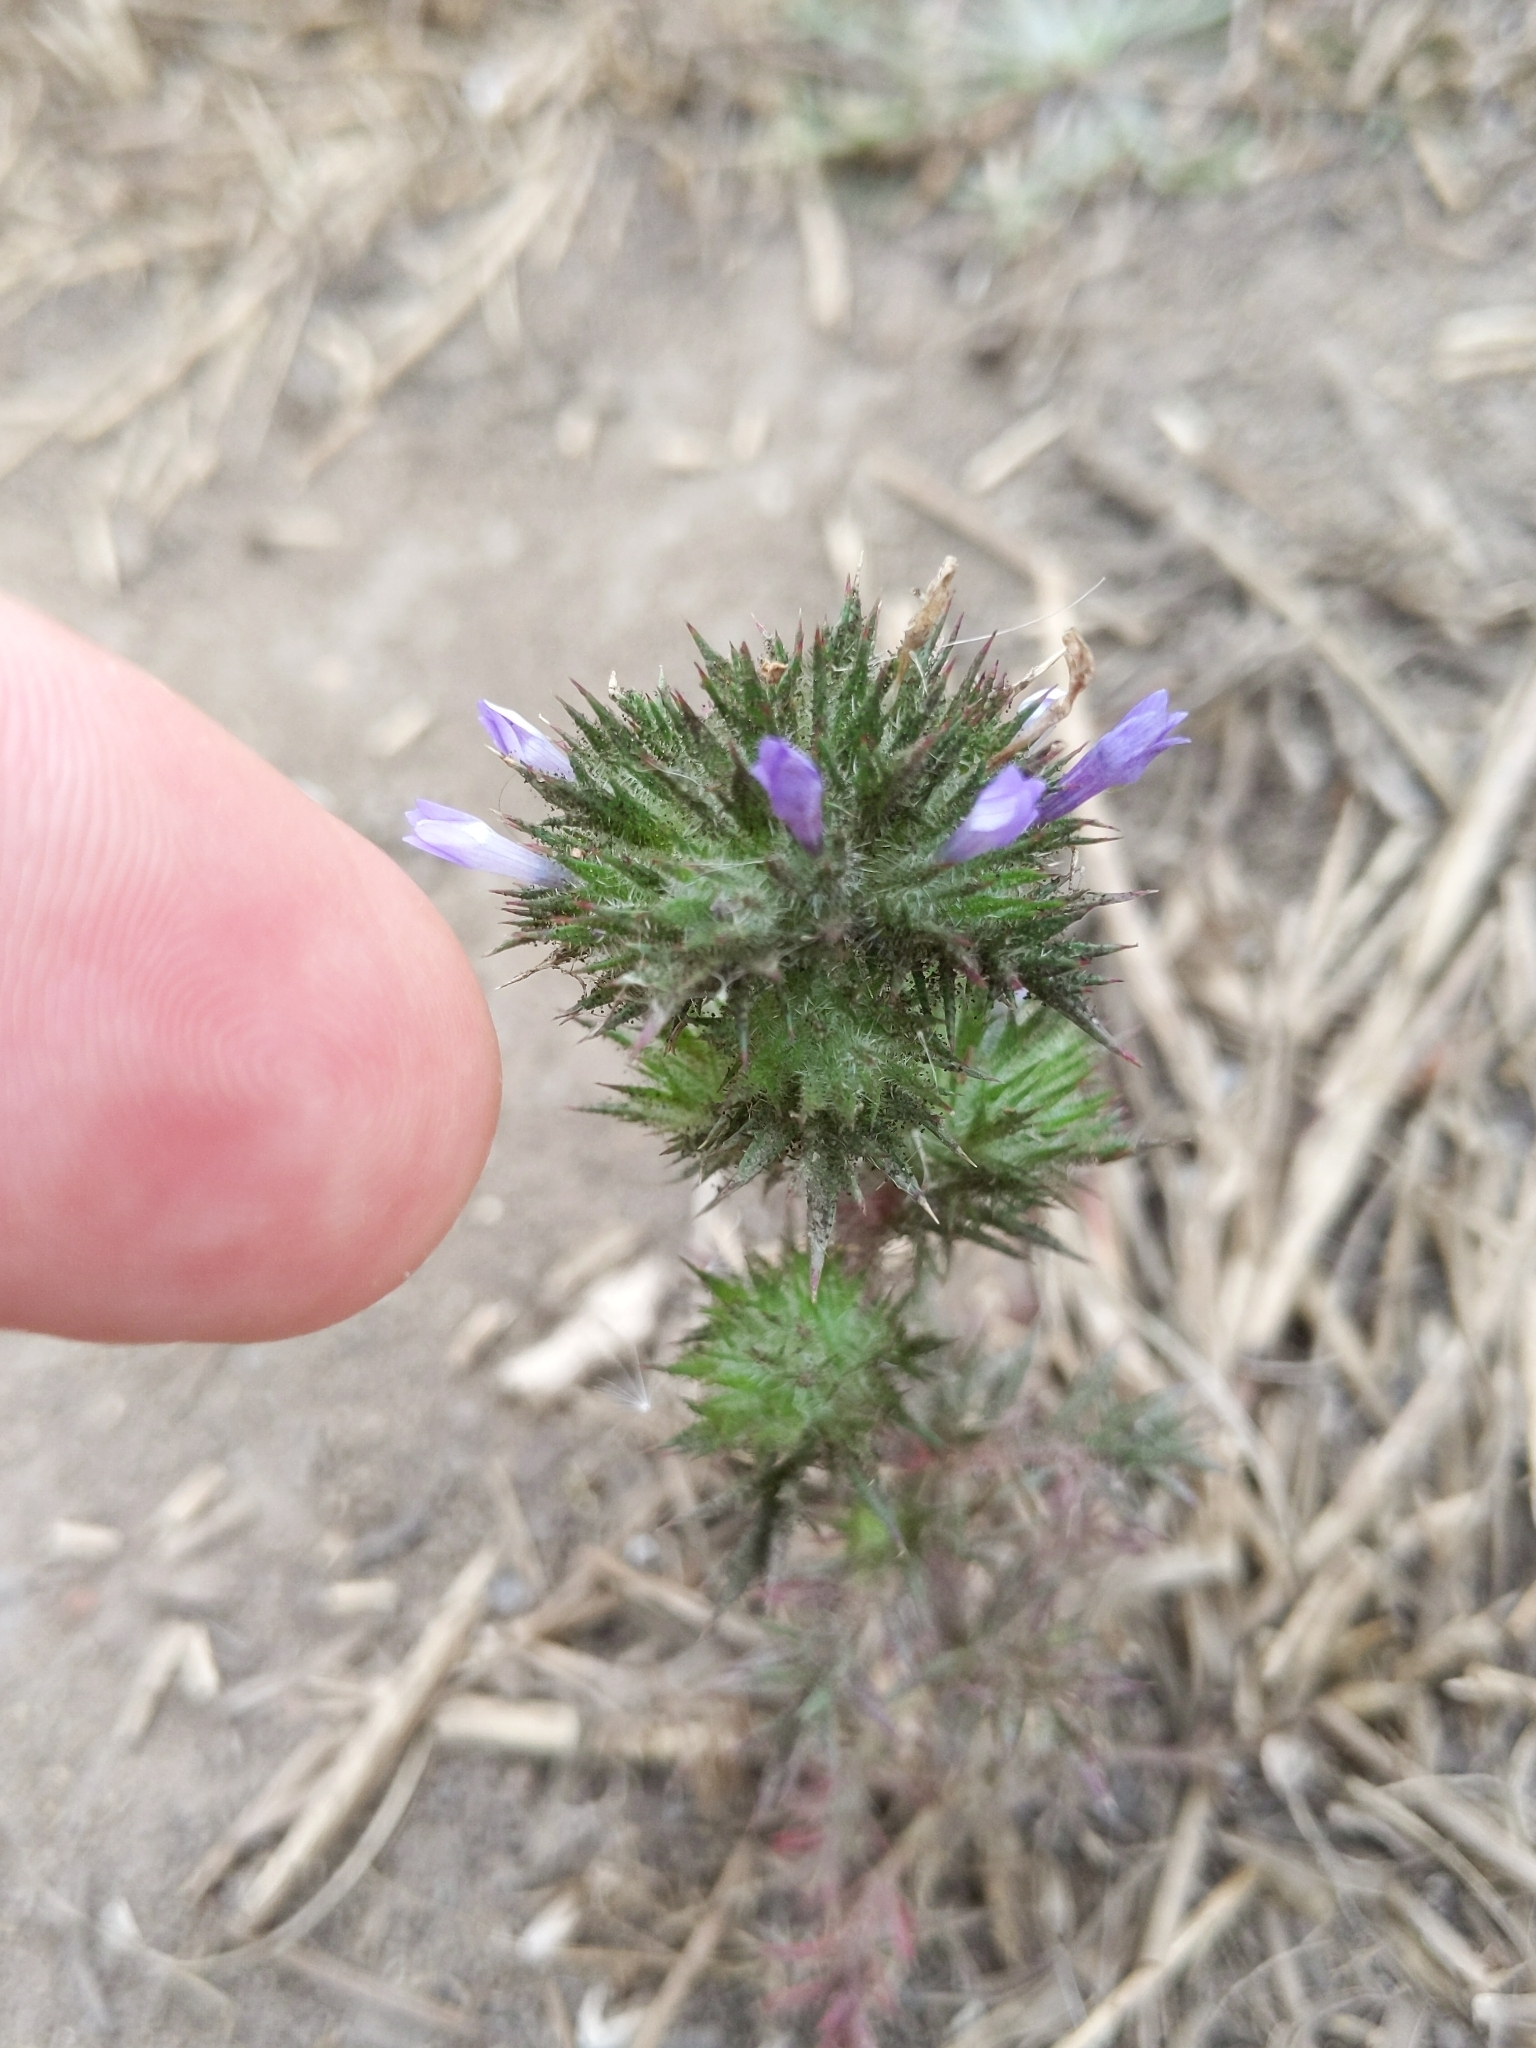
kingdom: Plantae
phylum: Tracheophyta
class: Magnoliopsida
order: Ericales
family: Polemoniaceae
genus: Navarretia
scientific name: Navarretia squarrosa
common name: Skunkweed
